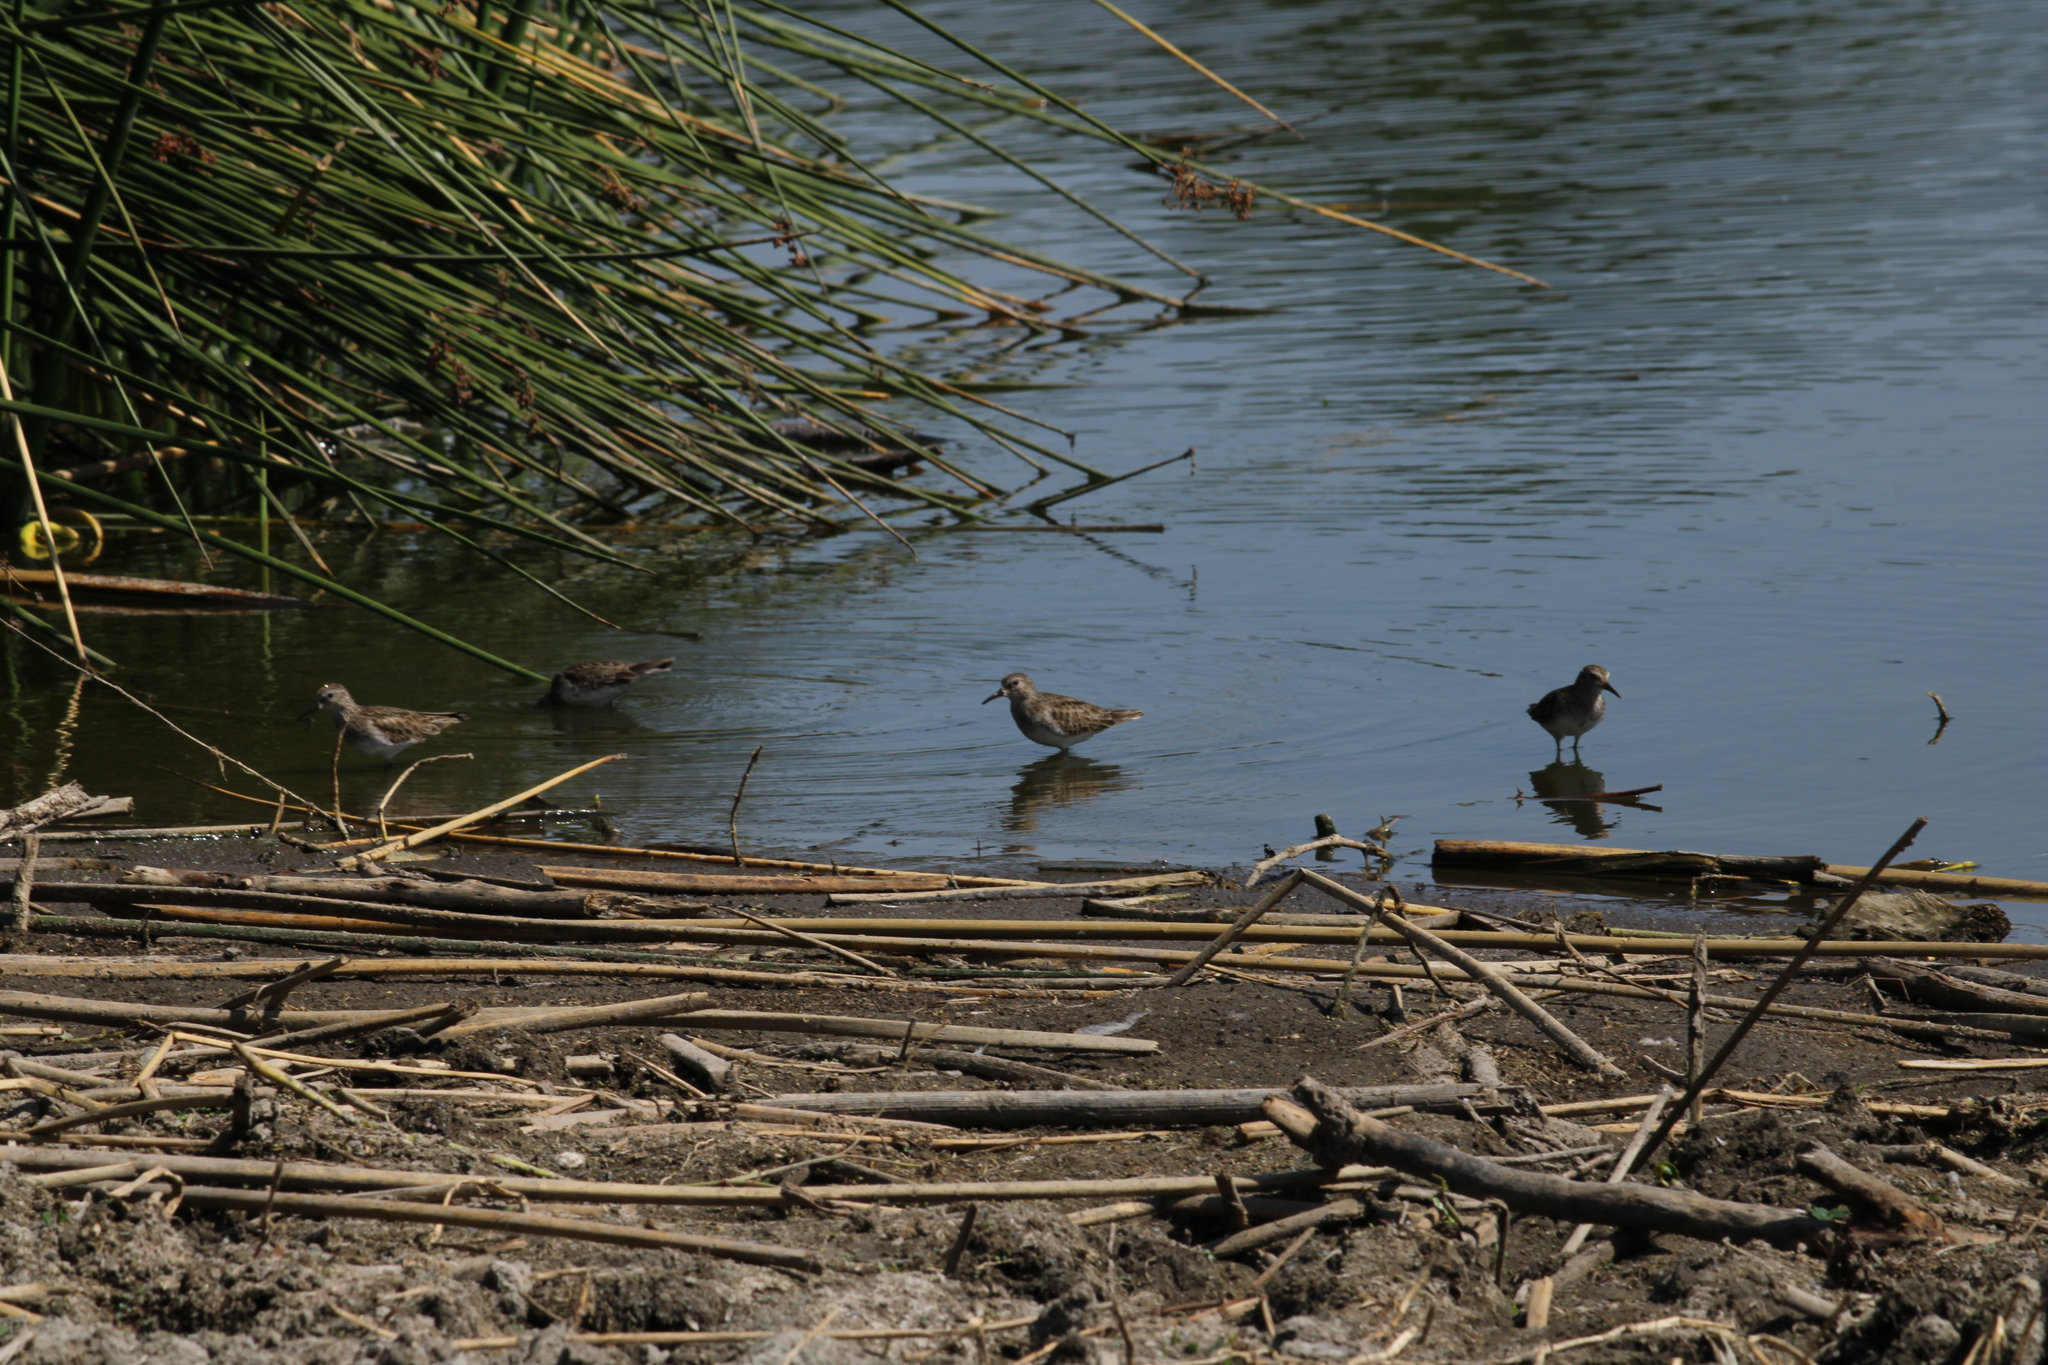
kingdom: Animalia
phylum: Chordata
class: Aves
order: Charadriiformes
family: Scolopacidae
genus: Calidris
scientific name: Calidris minutilla
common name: Least sandpiper
